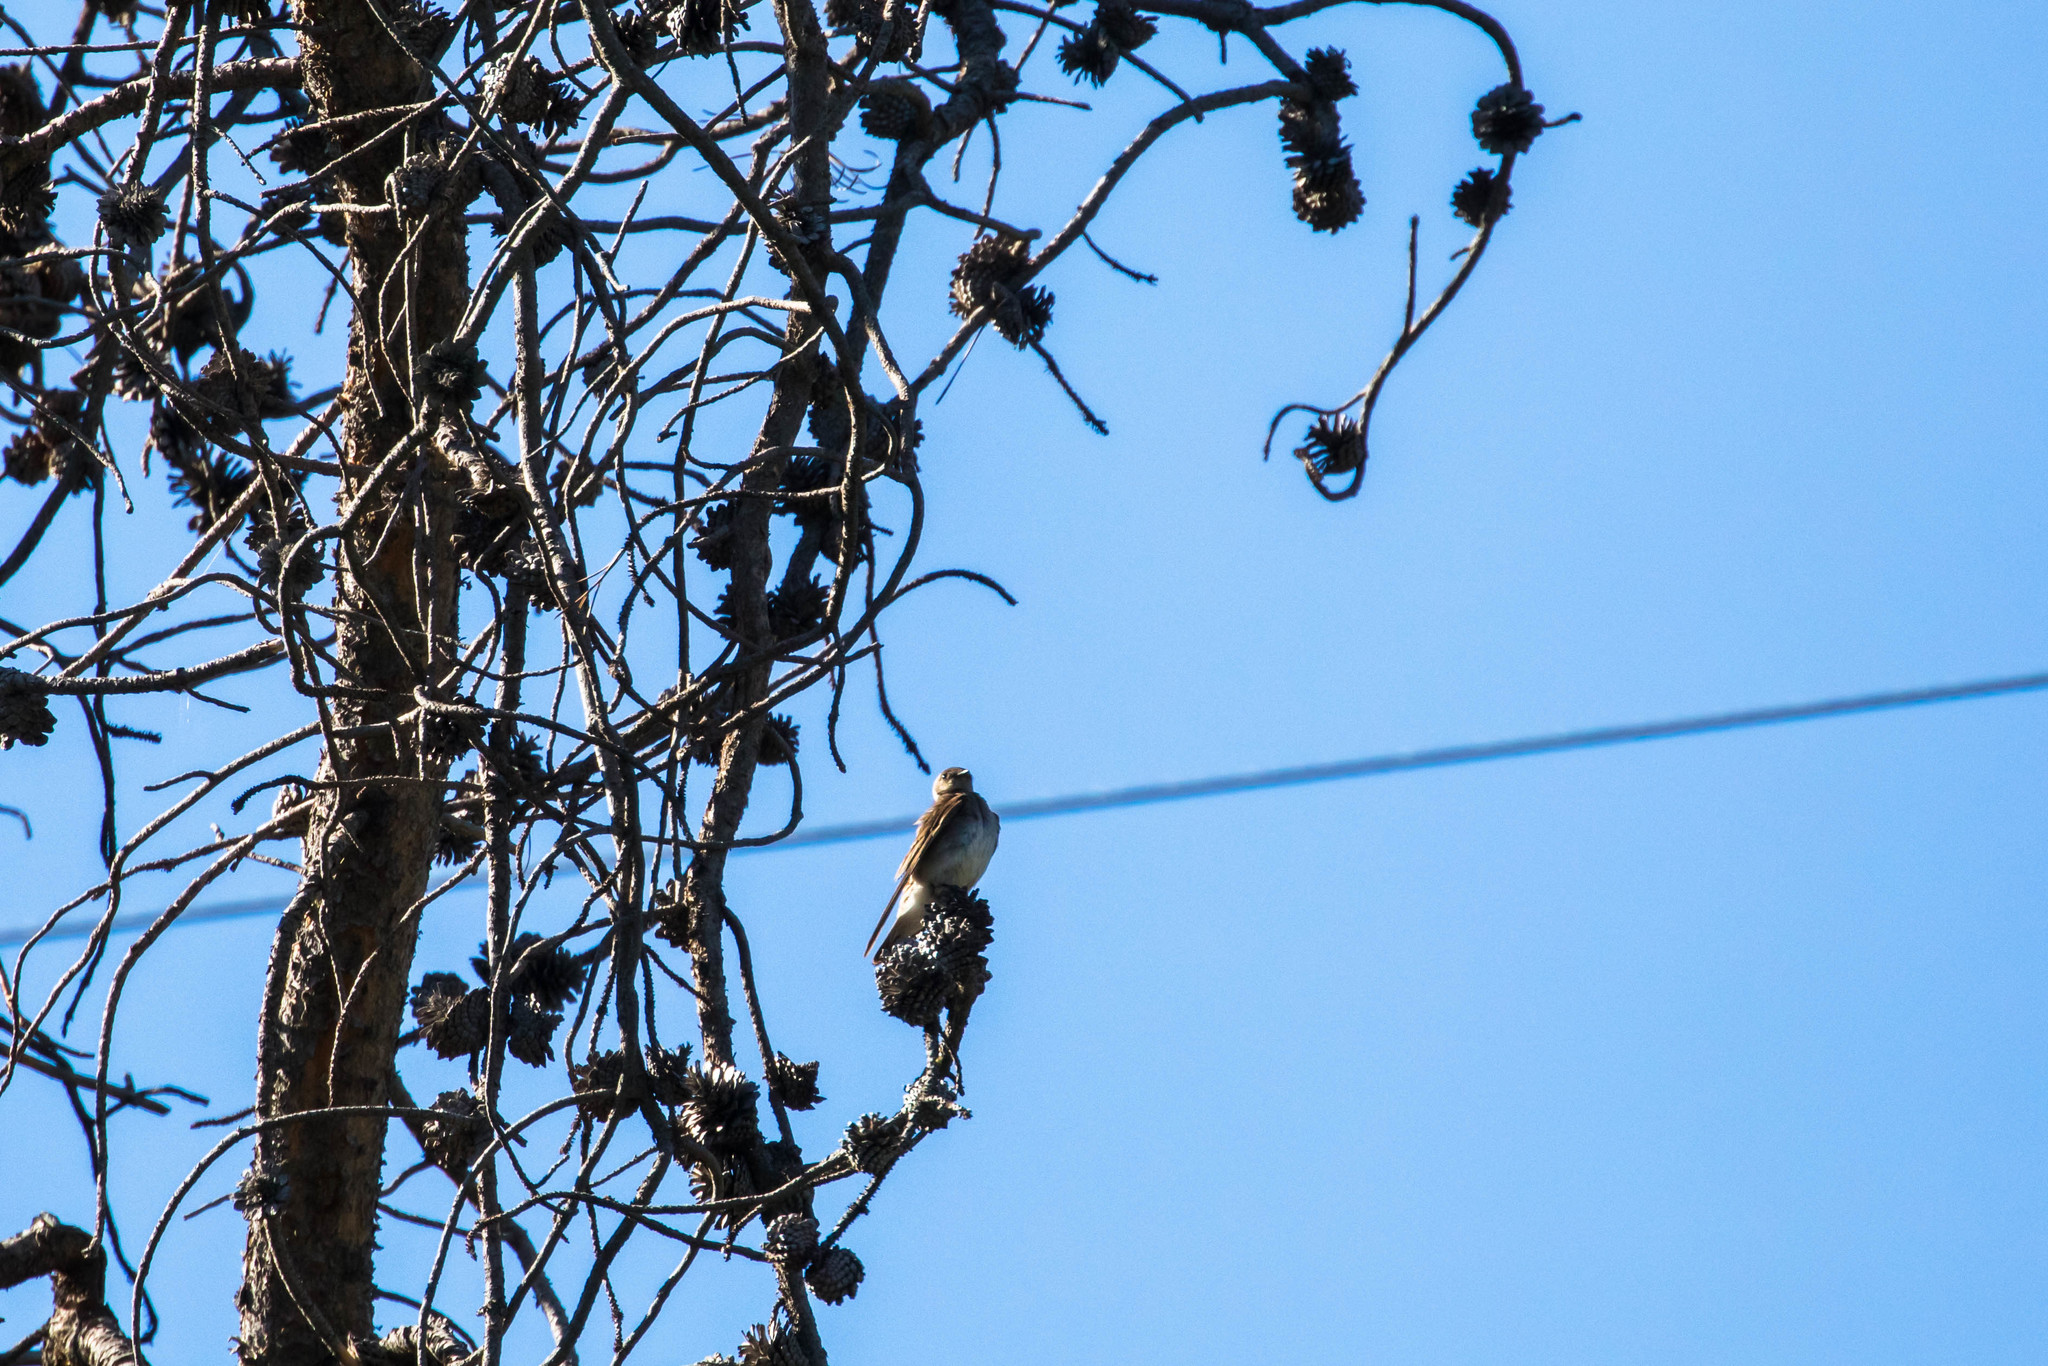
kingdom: Animalia
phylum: Chordata
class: Aves
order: Passeriformes
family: Hirundinidae
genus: Stelgidopteryx
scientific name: Stelgidopteryx serripennis
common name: Northern rough-winged swallow
